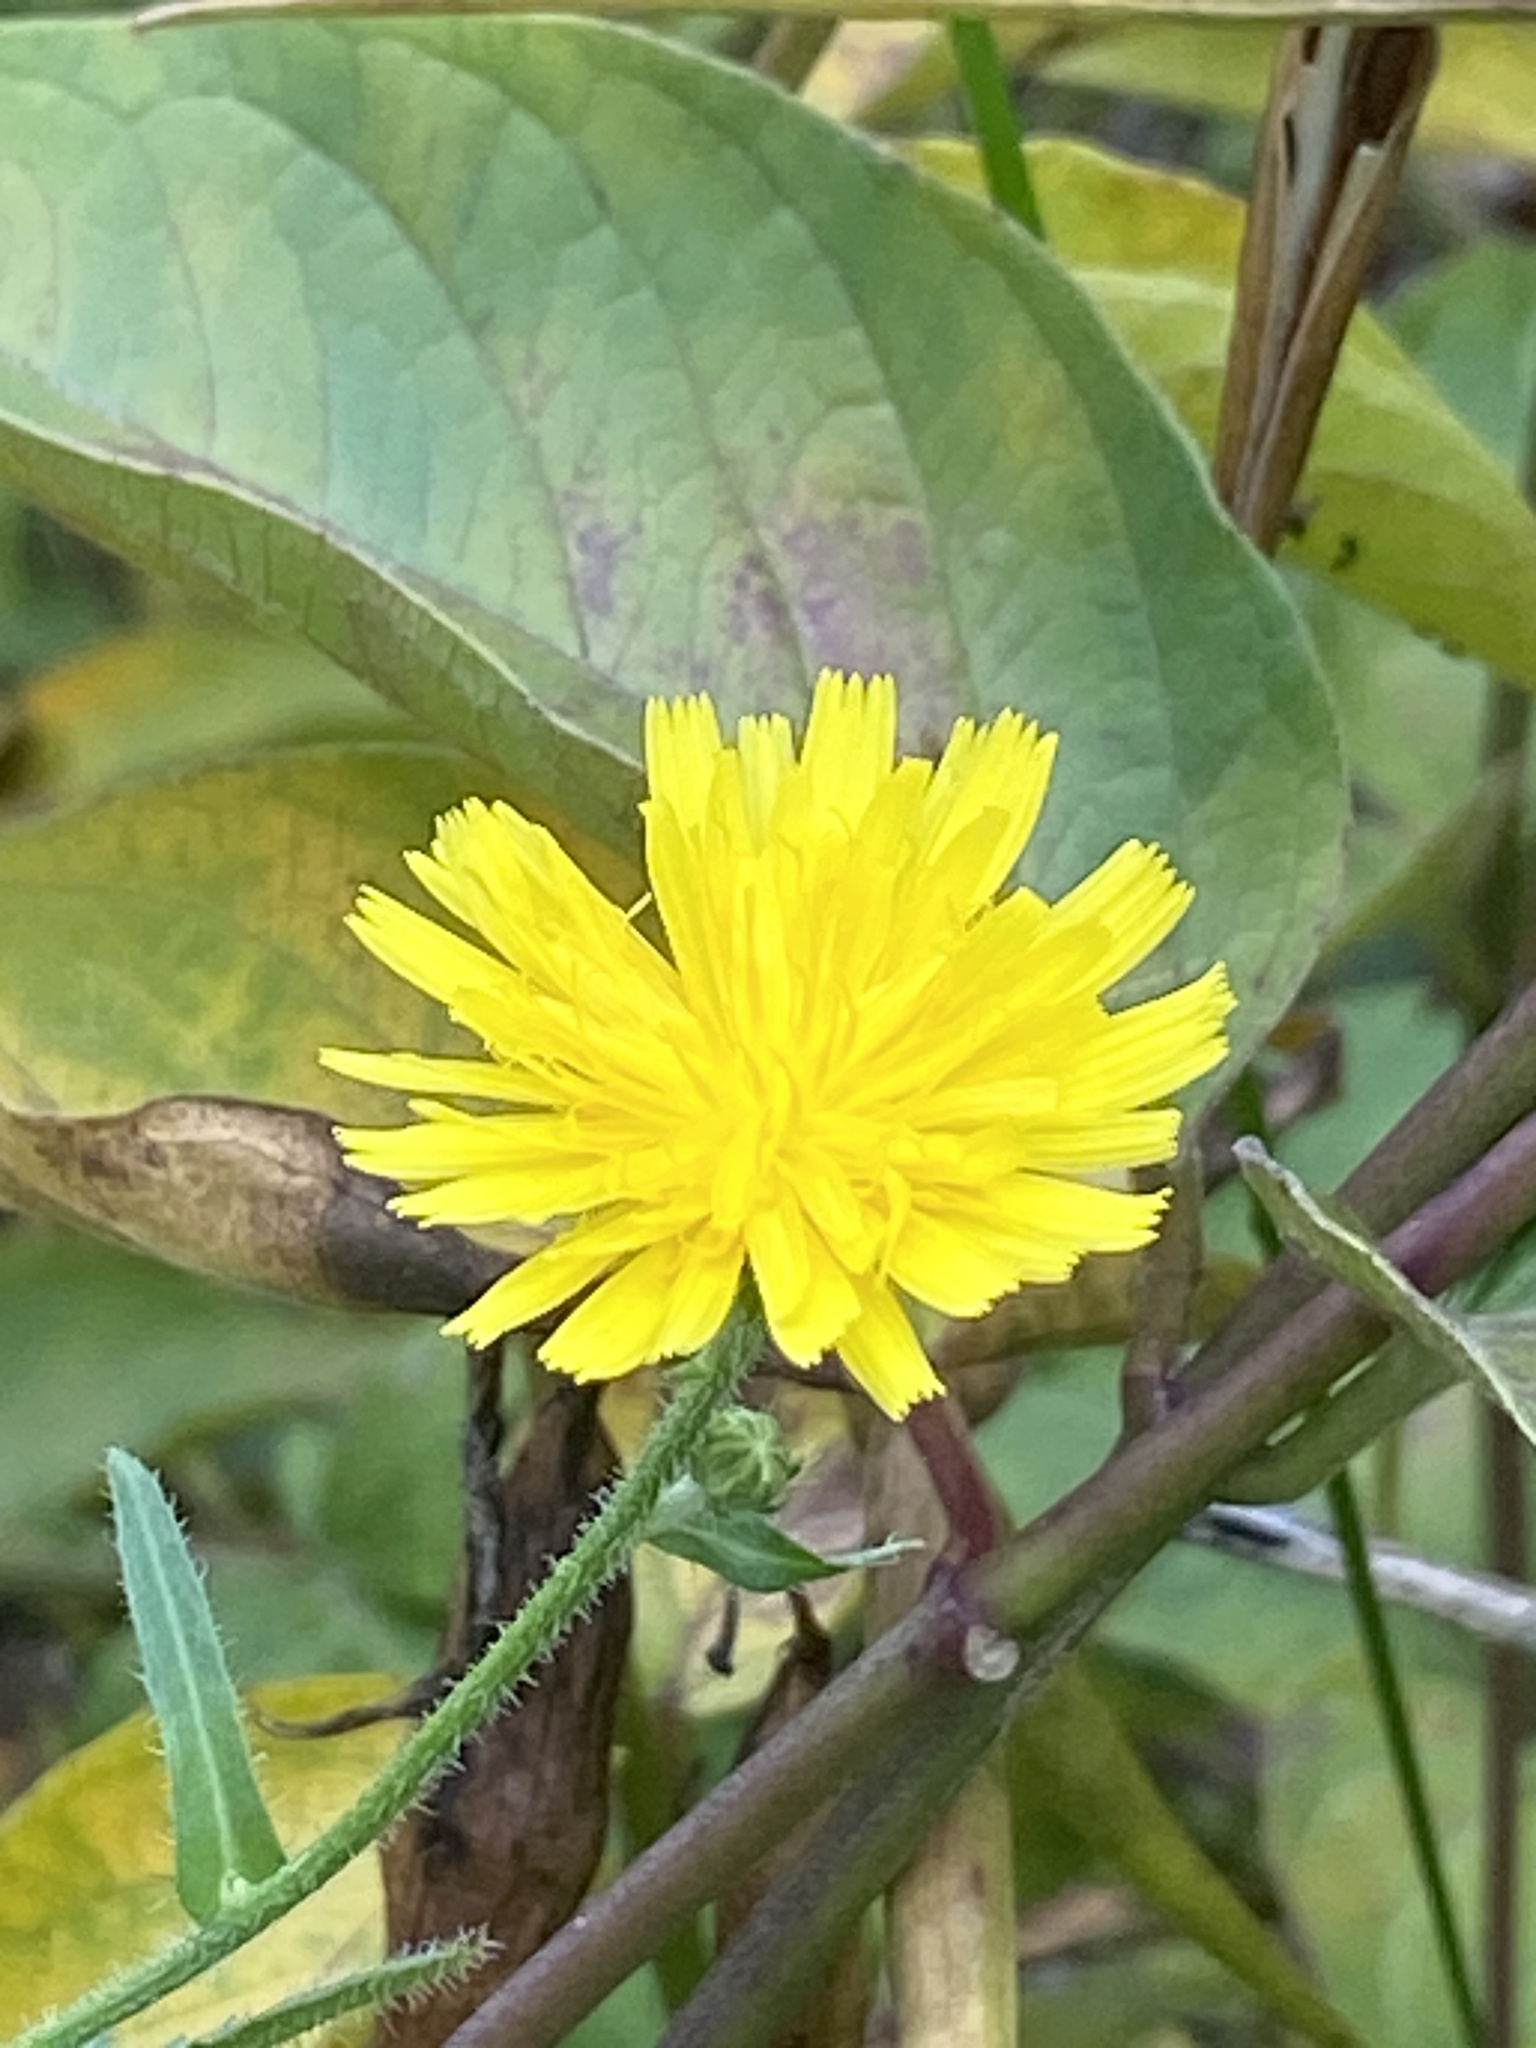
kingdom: Plantae
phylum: Tracheophyta
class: Magnoliopsida
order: Asterales
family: Asteraceae
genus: Picris
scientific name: Picris hieracioides
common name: Hawkweed oxtongue
